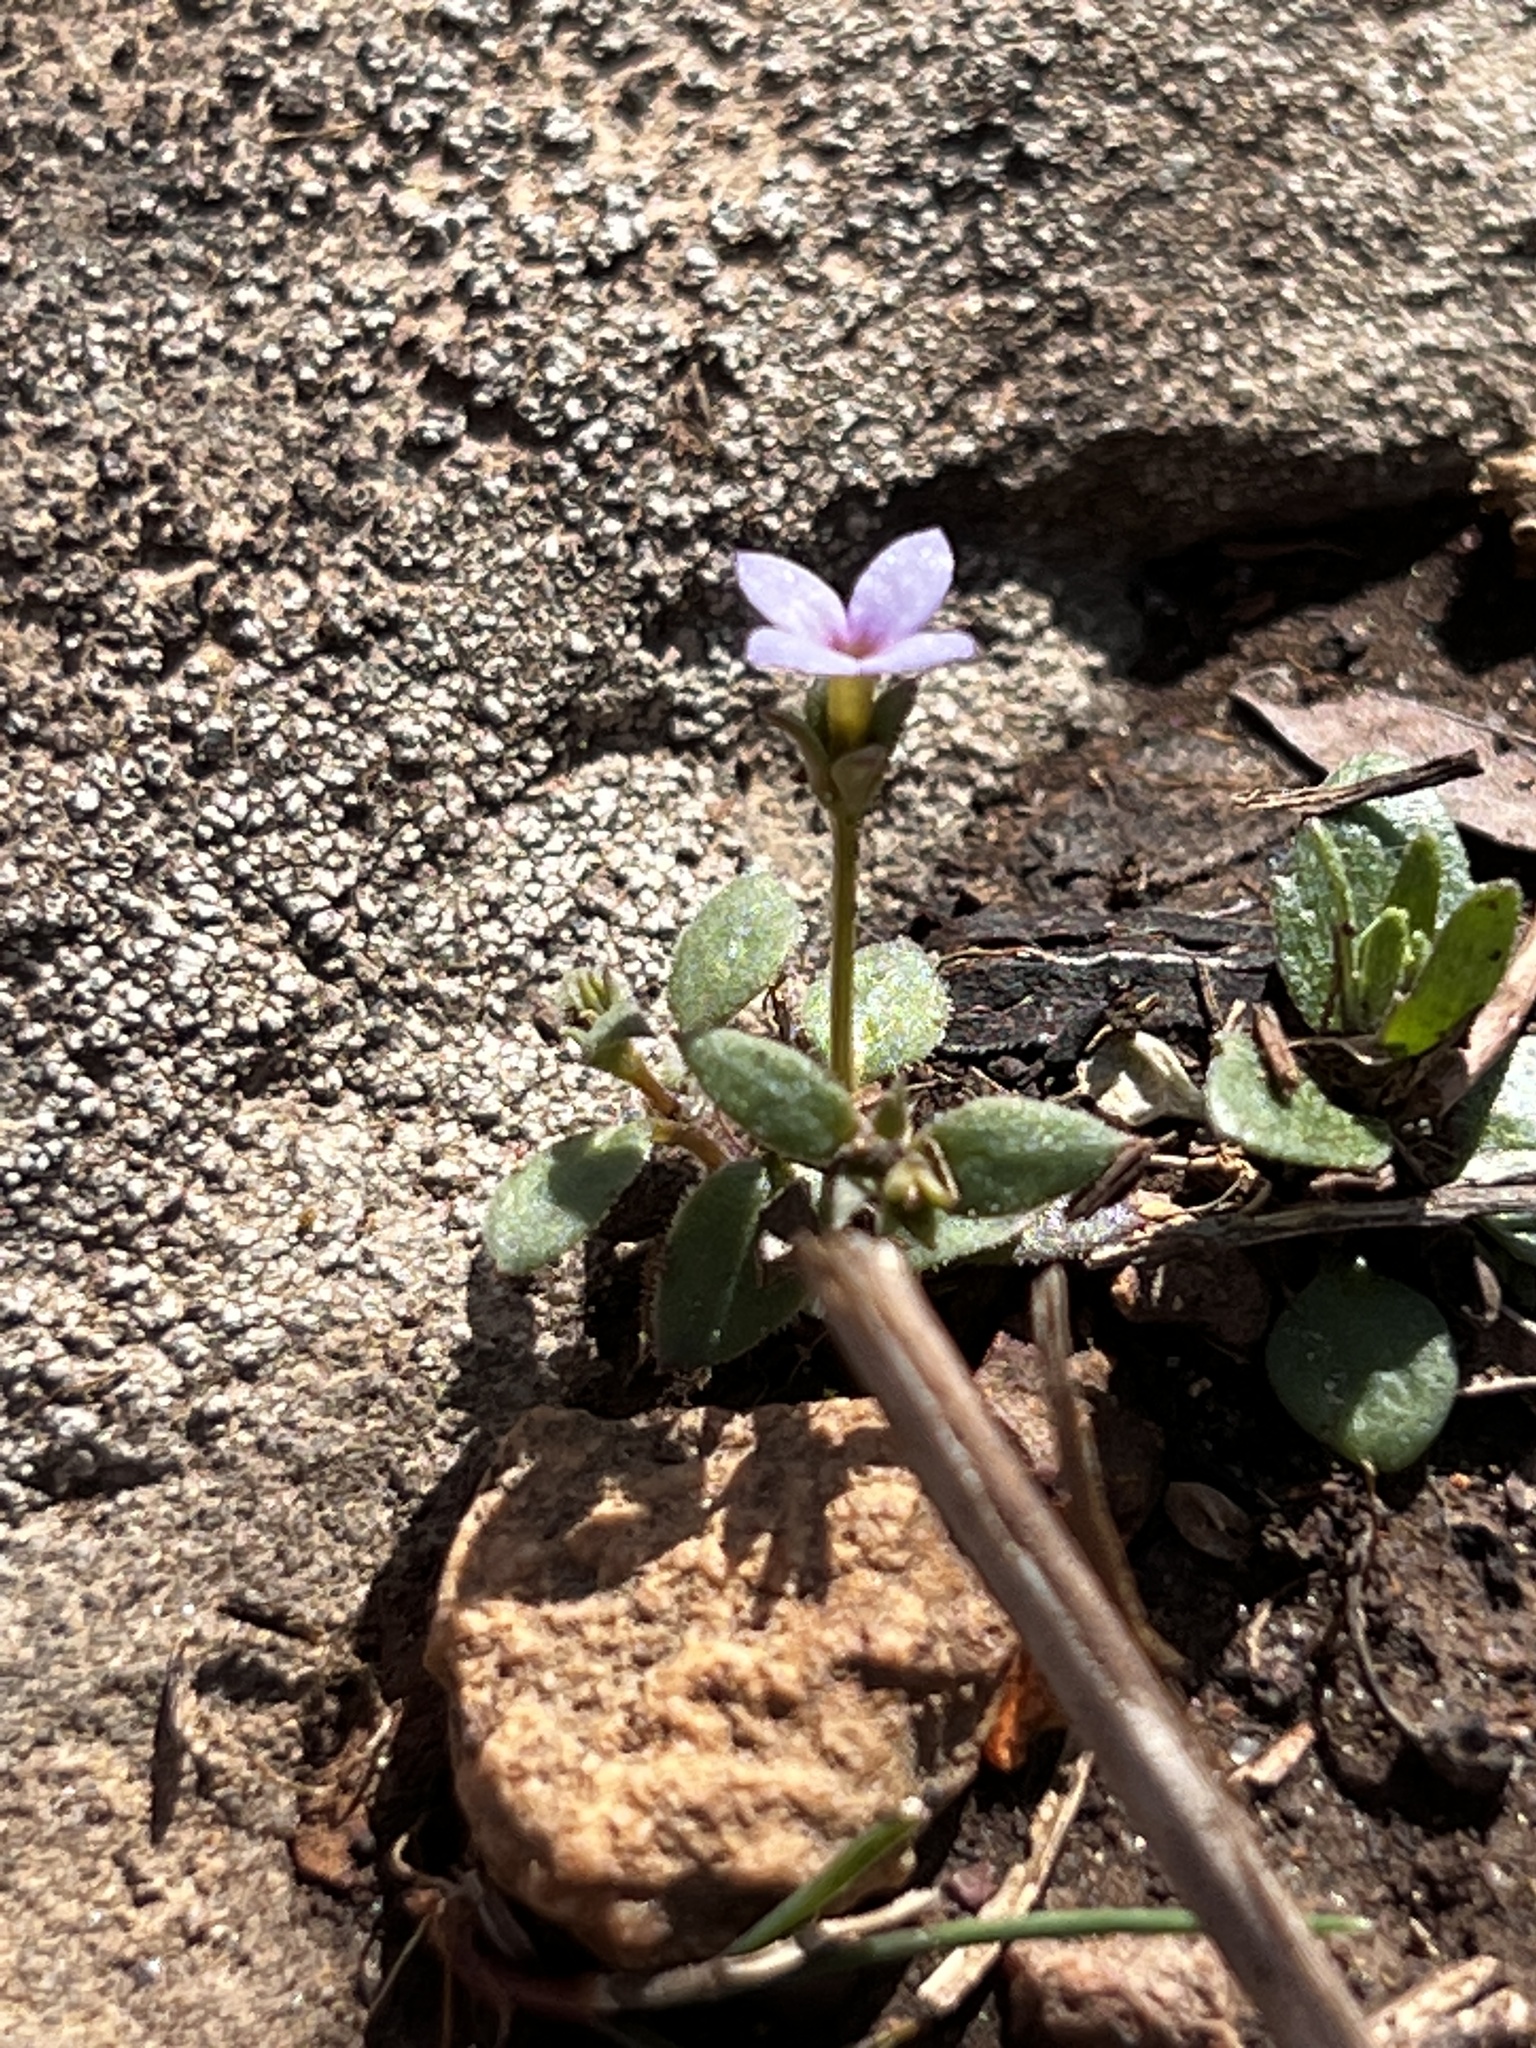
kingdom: Plantae
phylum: Tracheophyta
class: Magnoliopsida
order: Gentianales
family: Rubiaceae
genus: Houstonia
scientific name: Houstonia pusilla
